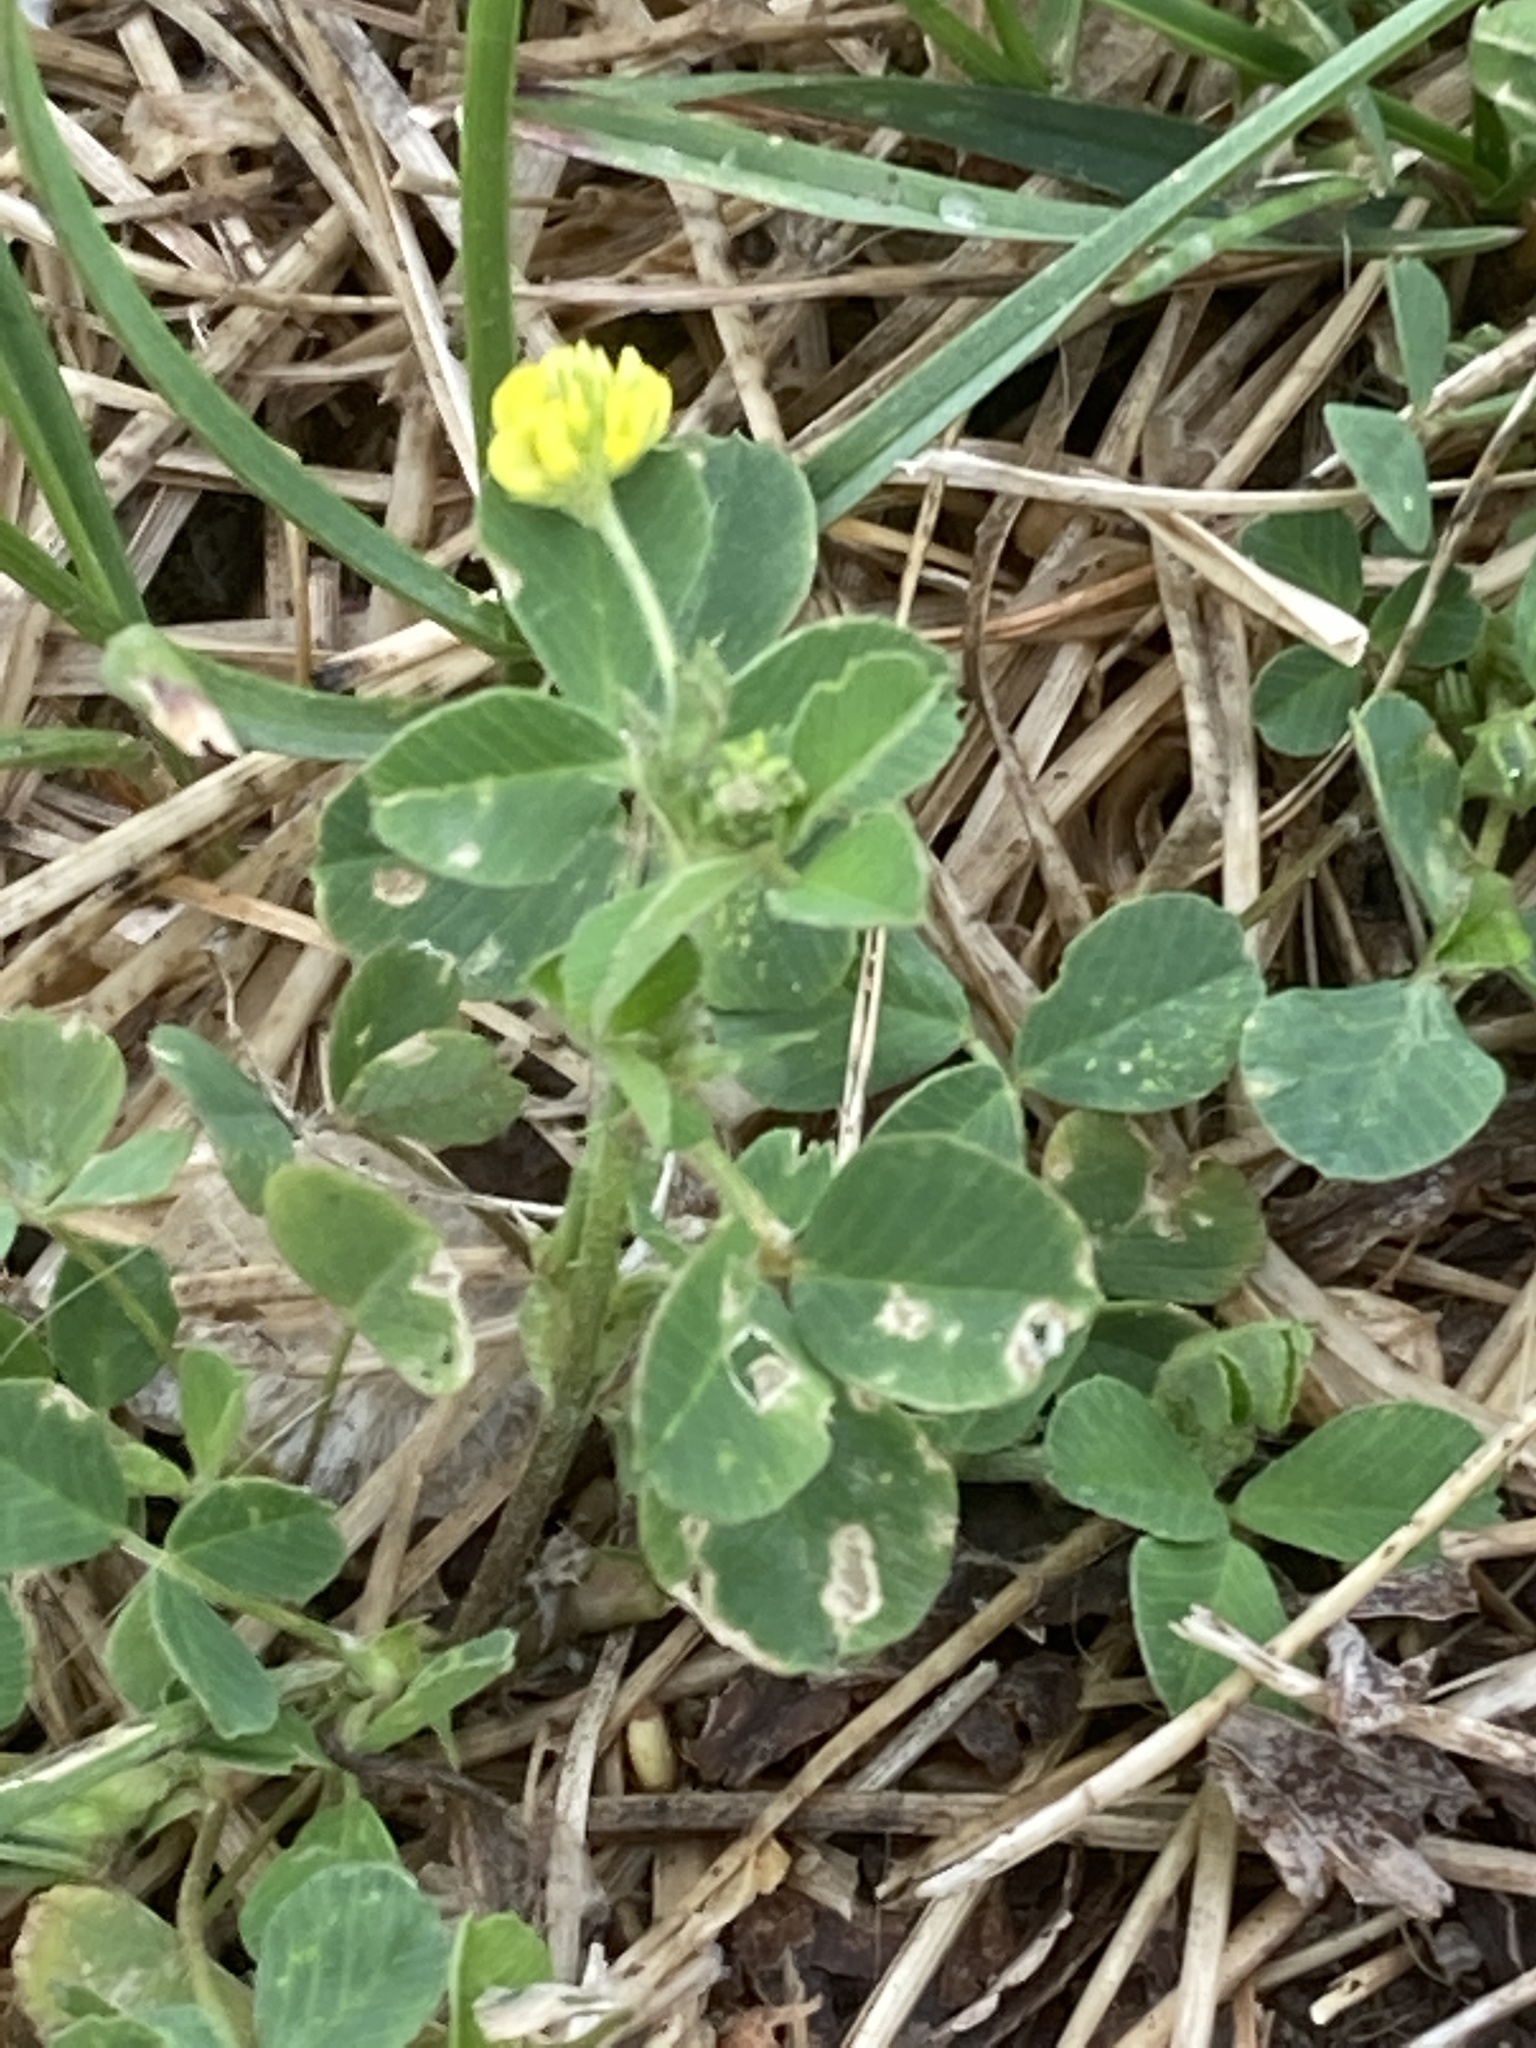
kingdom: Plantae
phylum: Tracheophyta
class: Magnoliopsida
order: Fabales
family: Fabaceae
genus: Medicago
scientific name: Medicago lupulina
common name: Black medick
